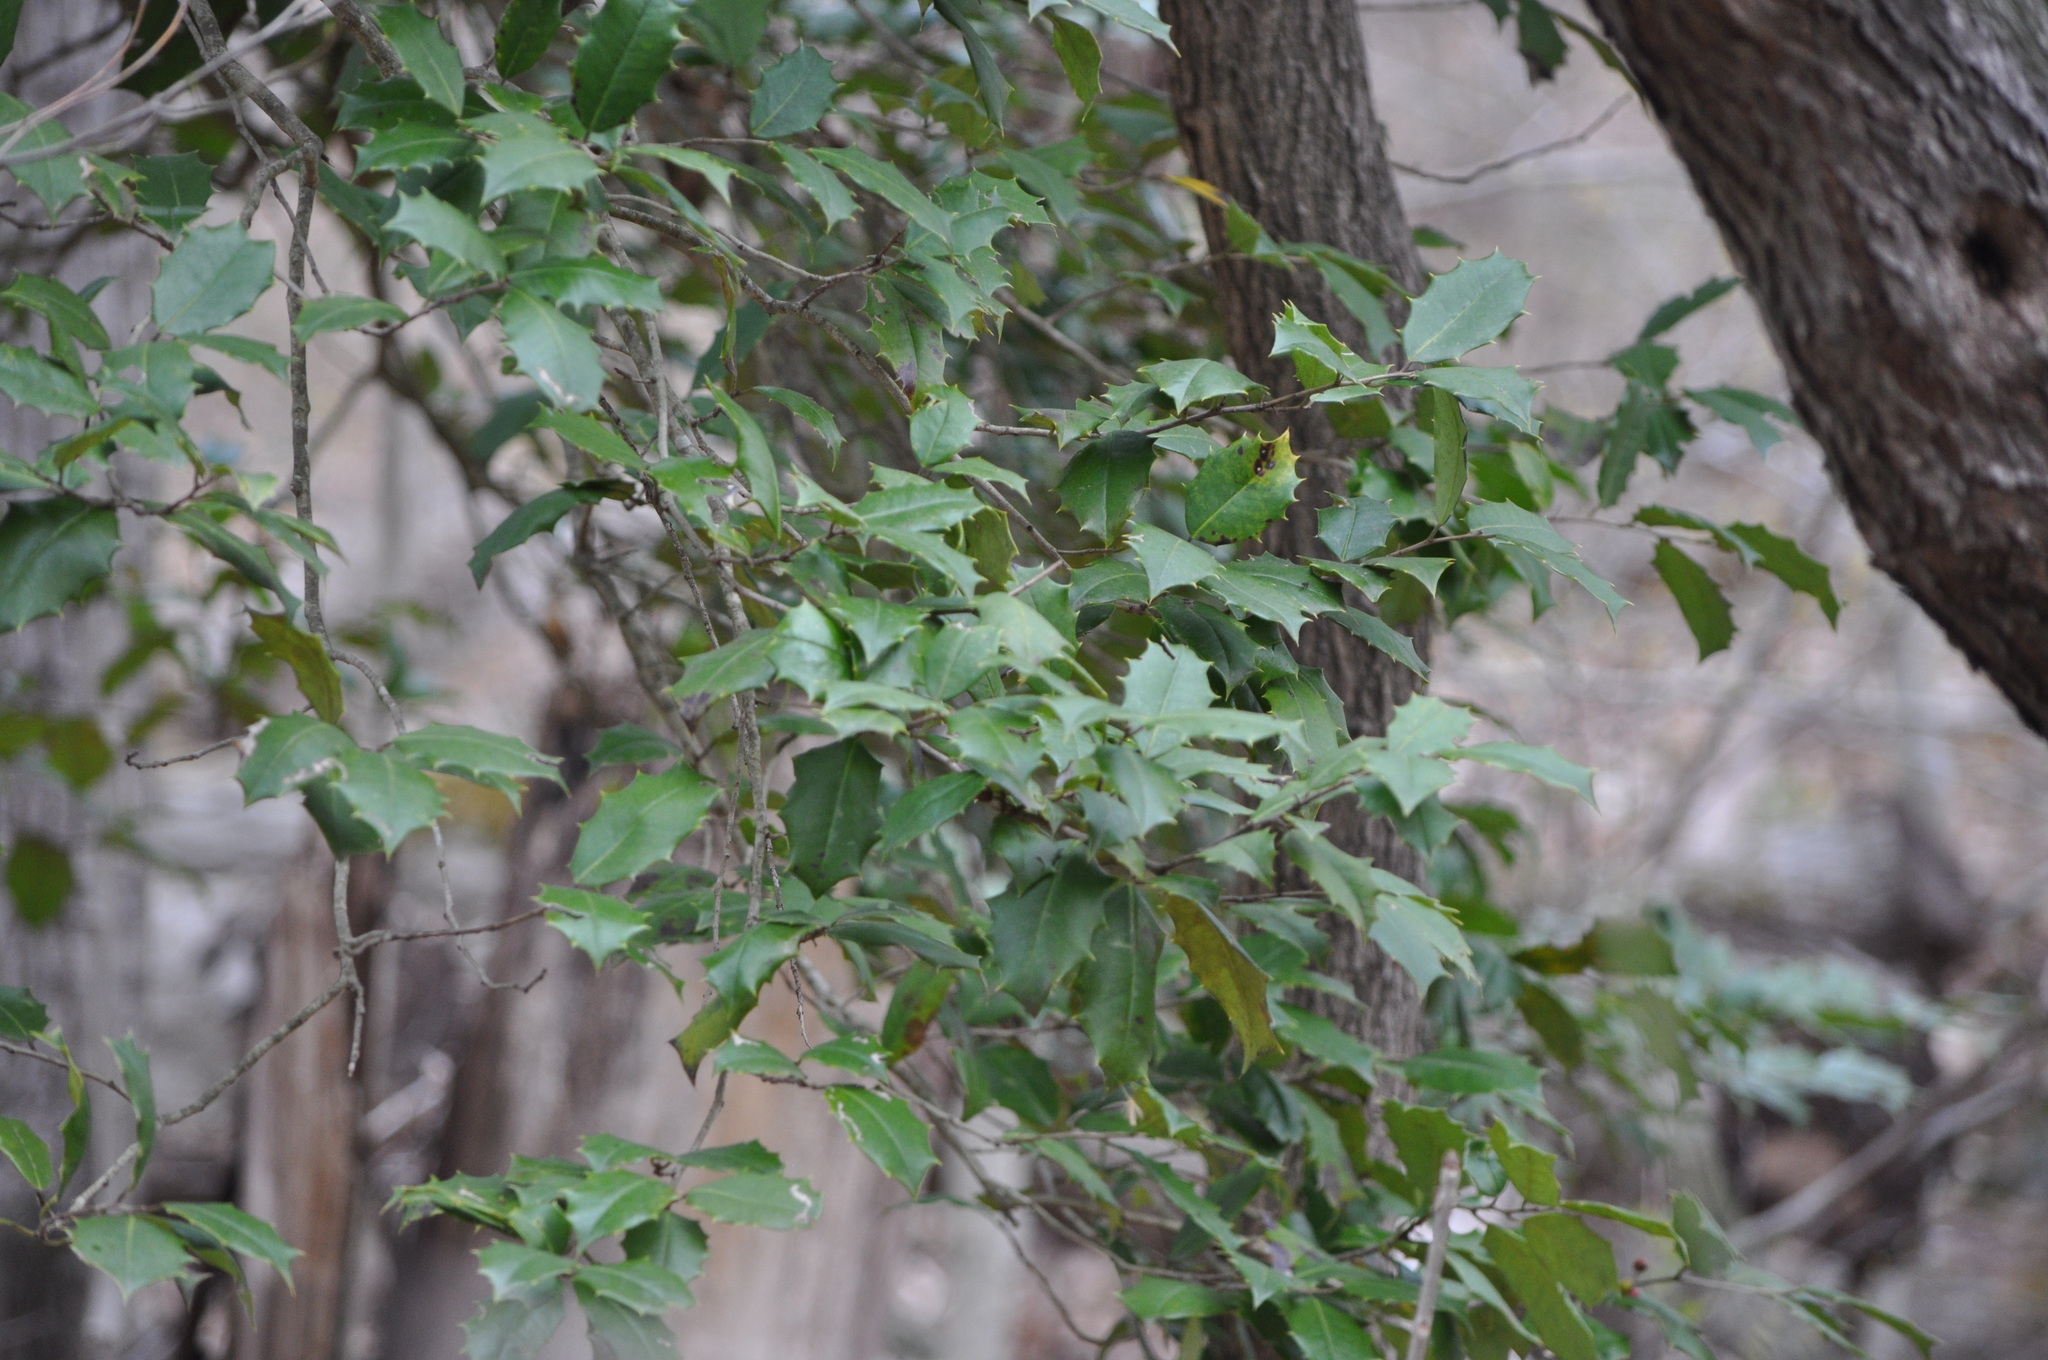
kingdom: Plantae
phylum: Tracheophyta
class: Magnoliopsida
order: Aquifoliales
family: Aquifoliaceae
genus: Ilex
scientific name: Ilex opaca
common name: American holly
